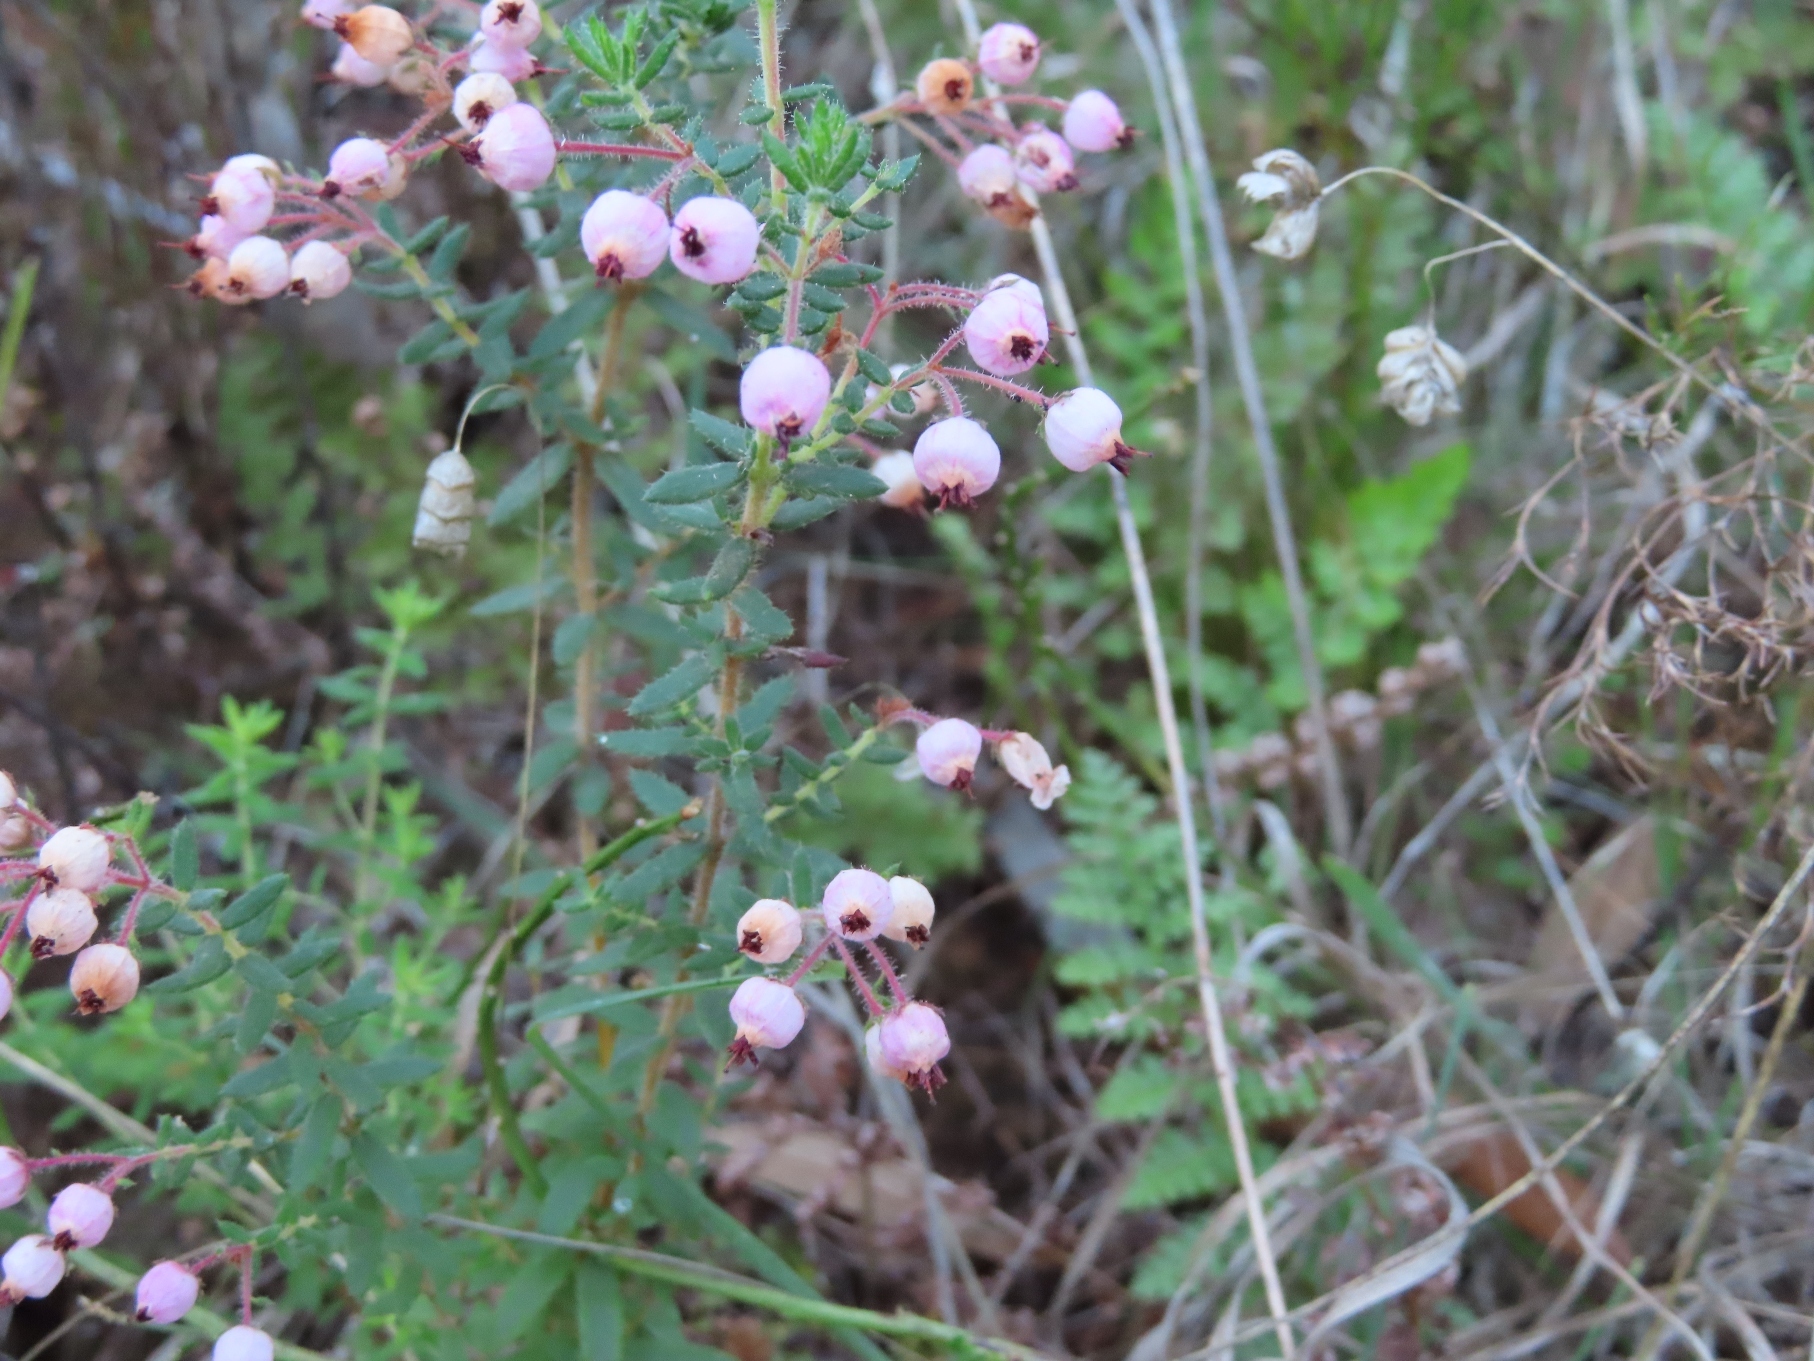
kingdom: Plantae
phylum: Tracheophyta
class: Magnoliopsida
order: Ericales
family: Ericaceae
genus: Erica
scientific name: Erica hirta
